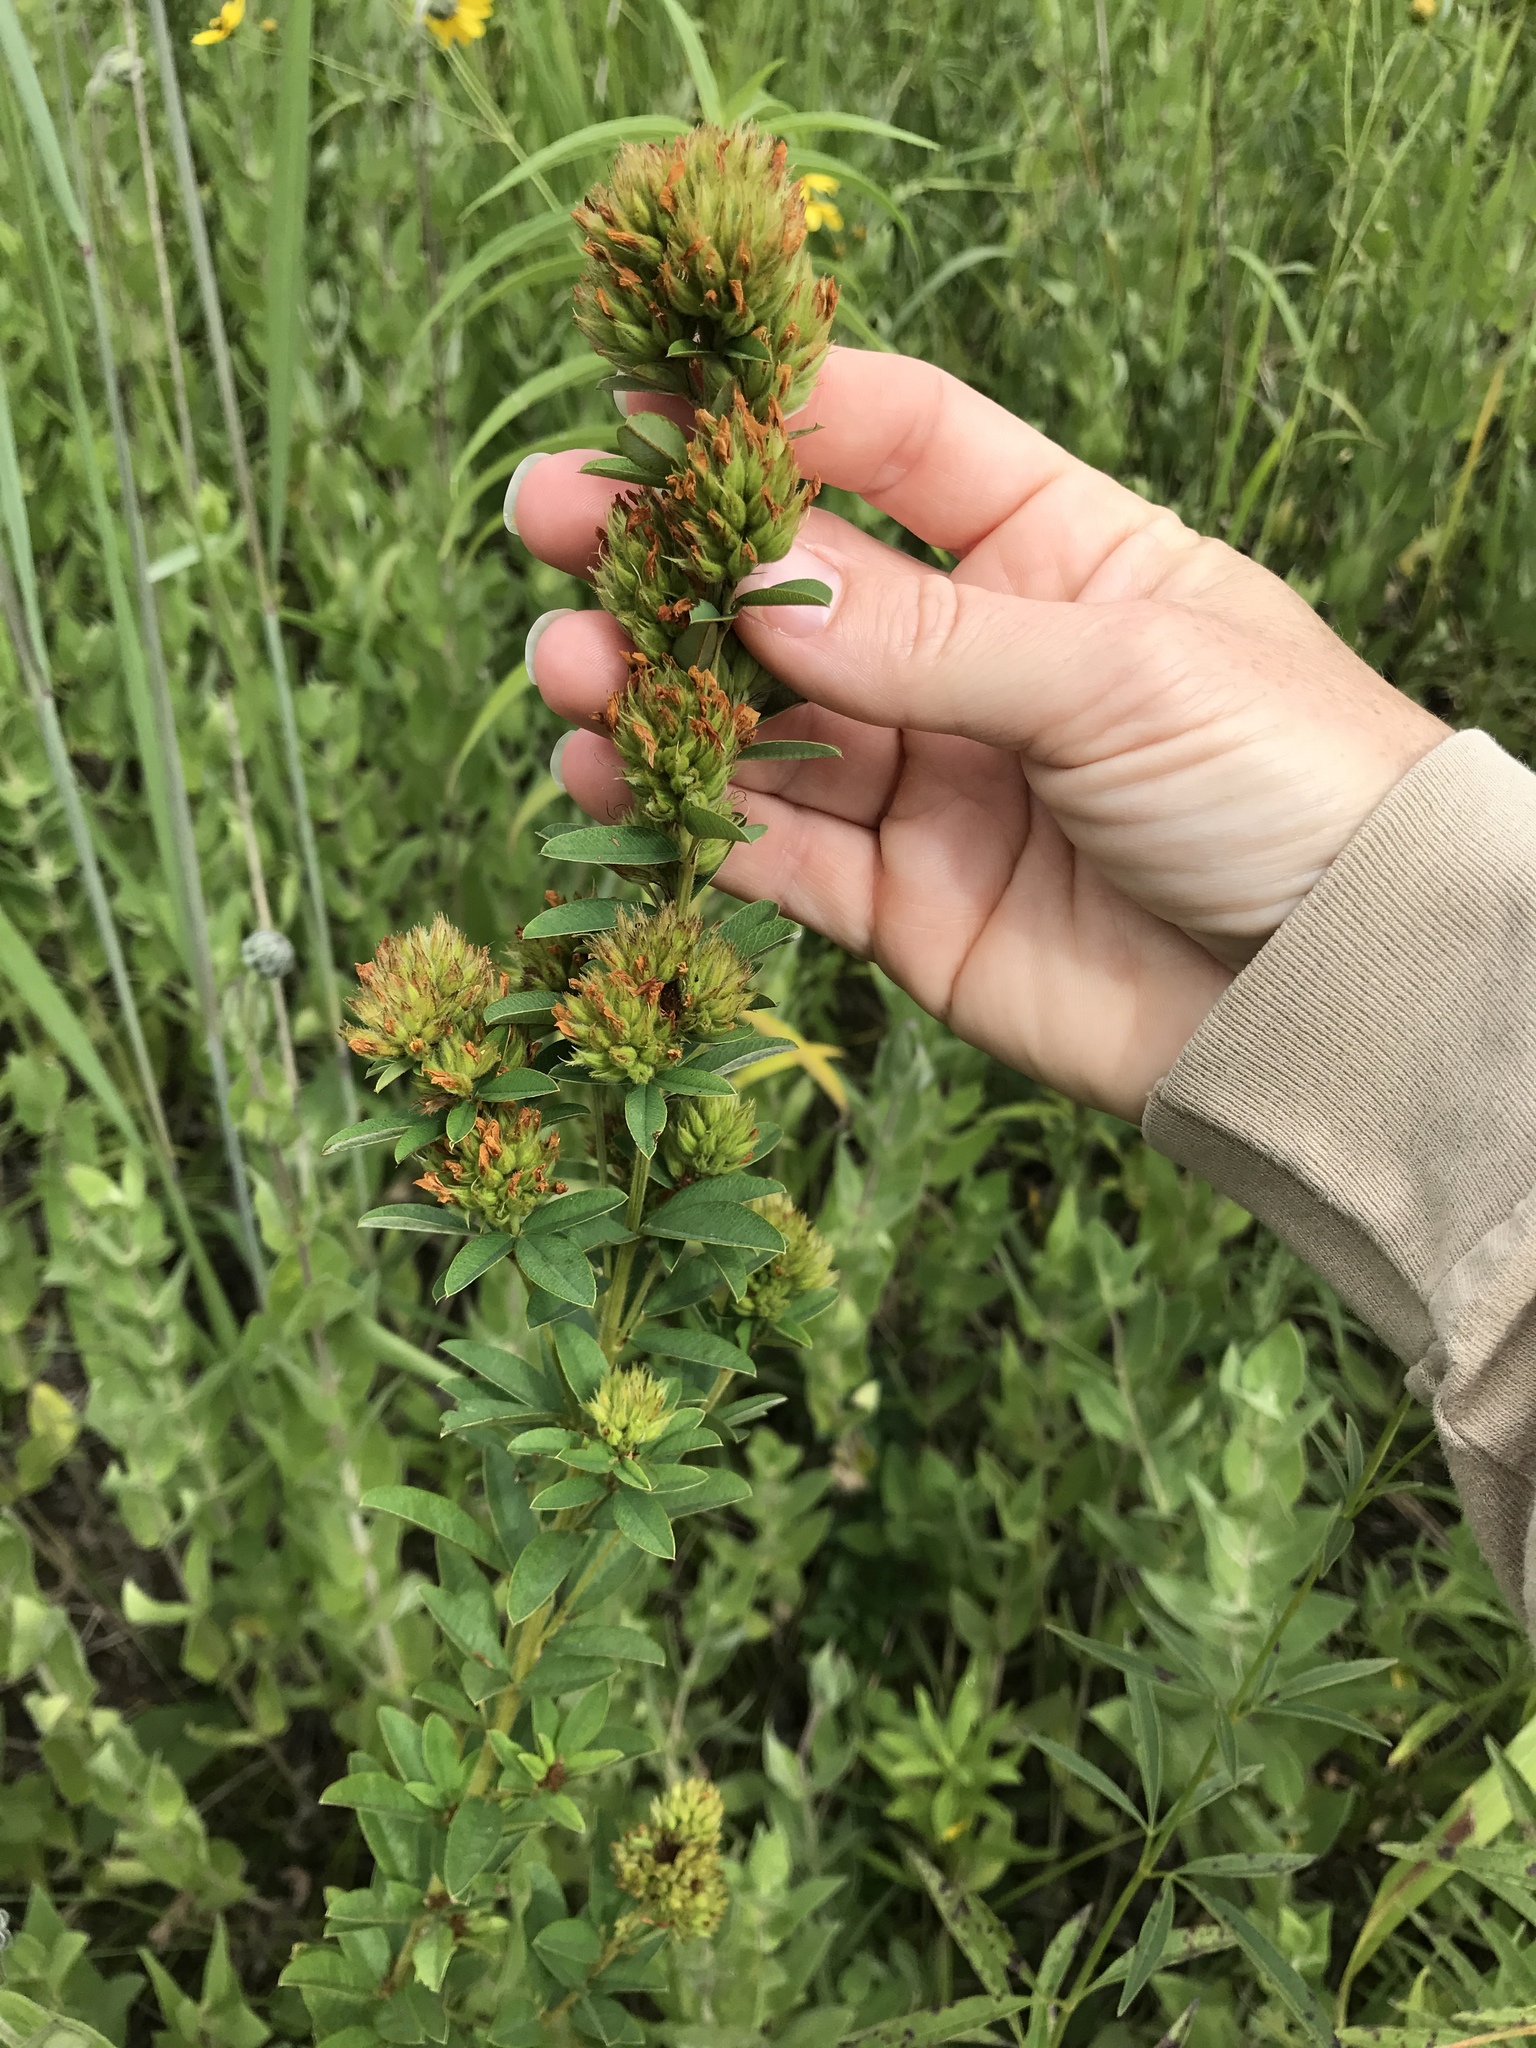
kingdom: Plantae
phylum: Tracheophyta
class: Magnoliopsida
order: Fabales
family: Fabaceae
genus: Lespedeza
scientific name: Lespedeza capitata
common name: Dusty clover
